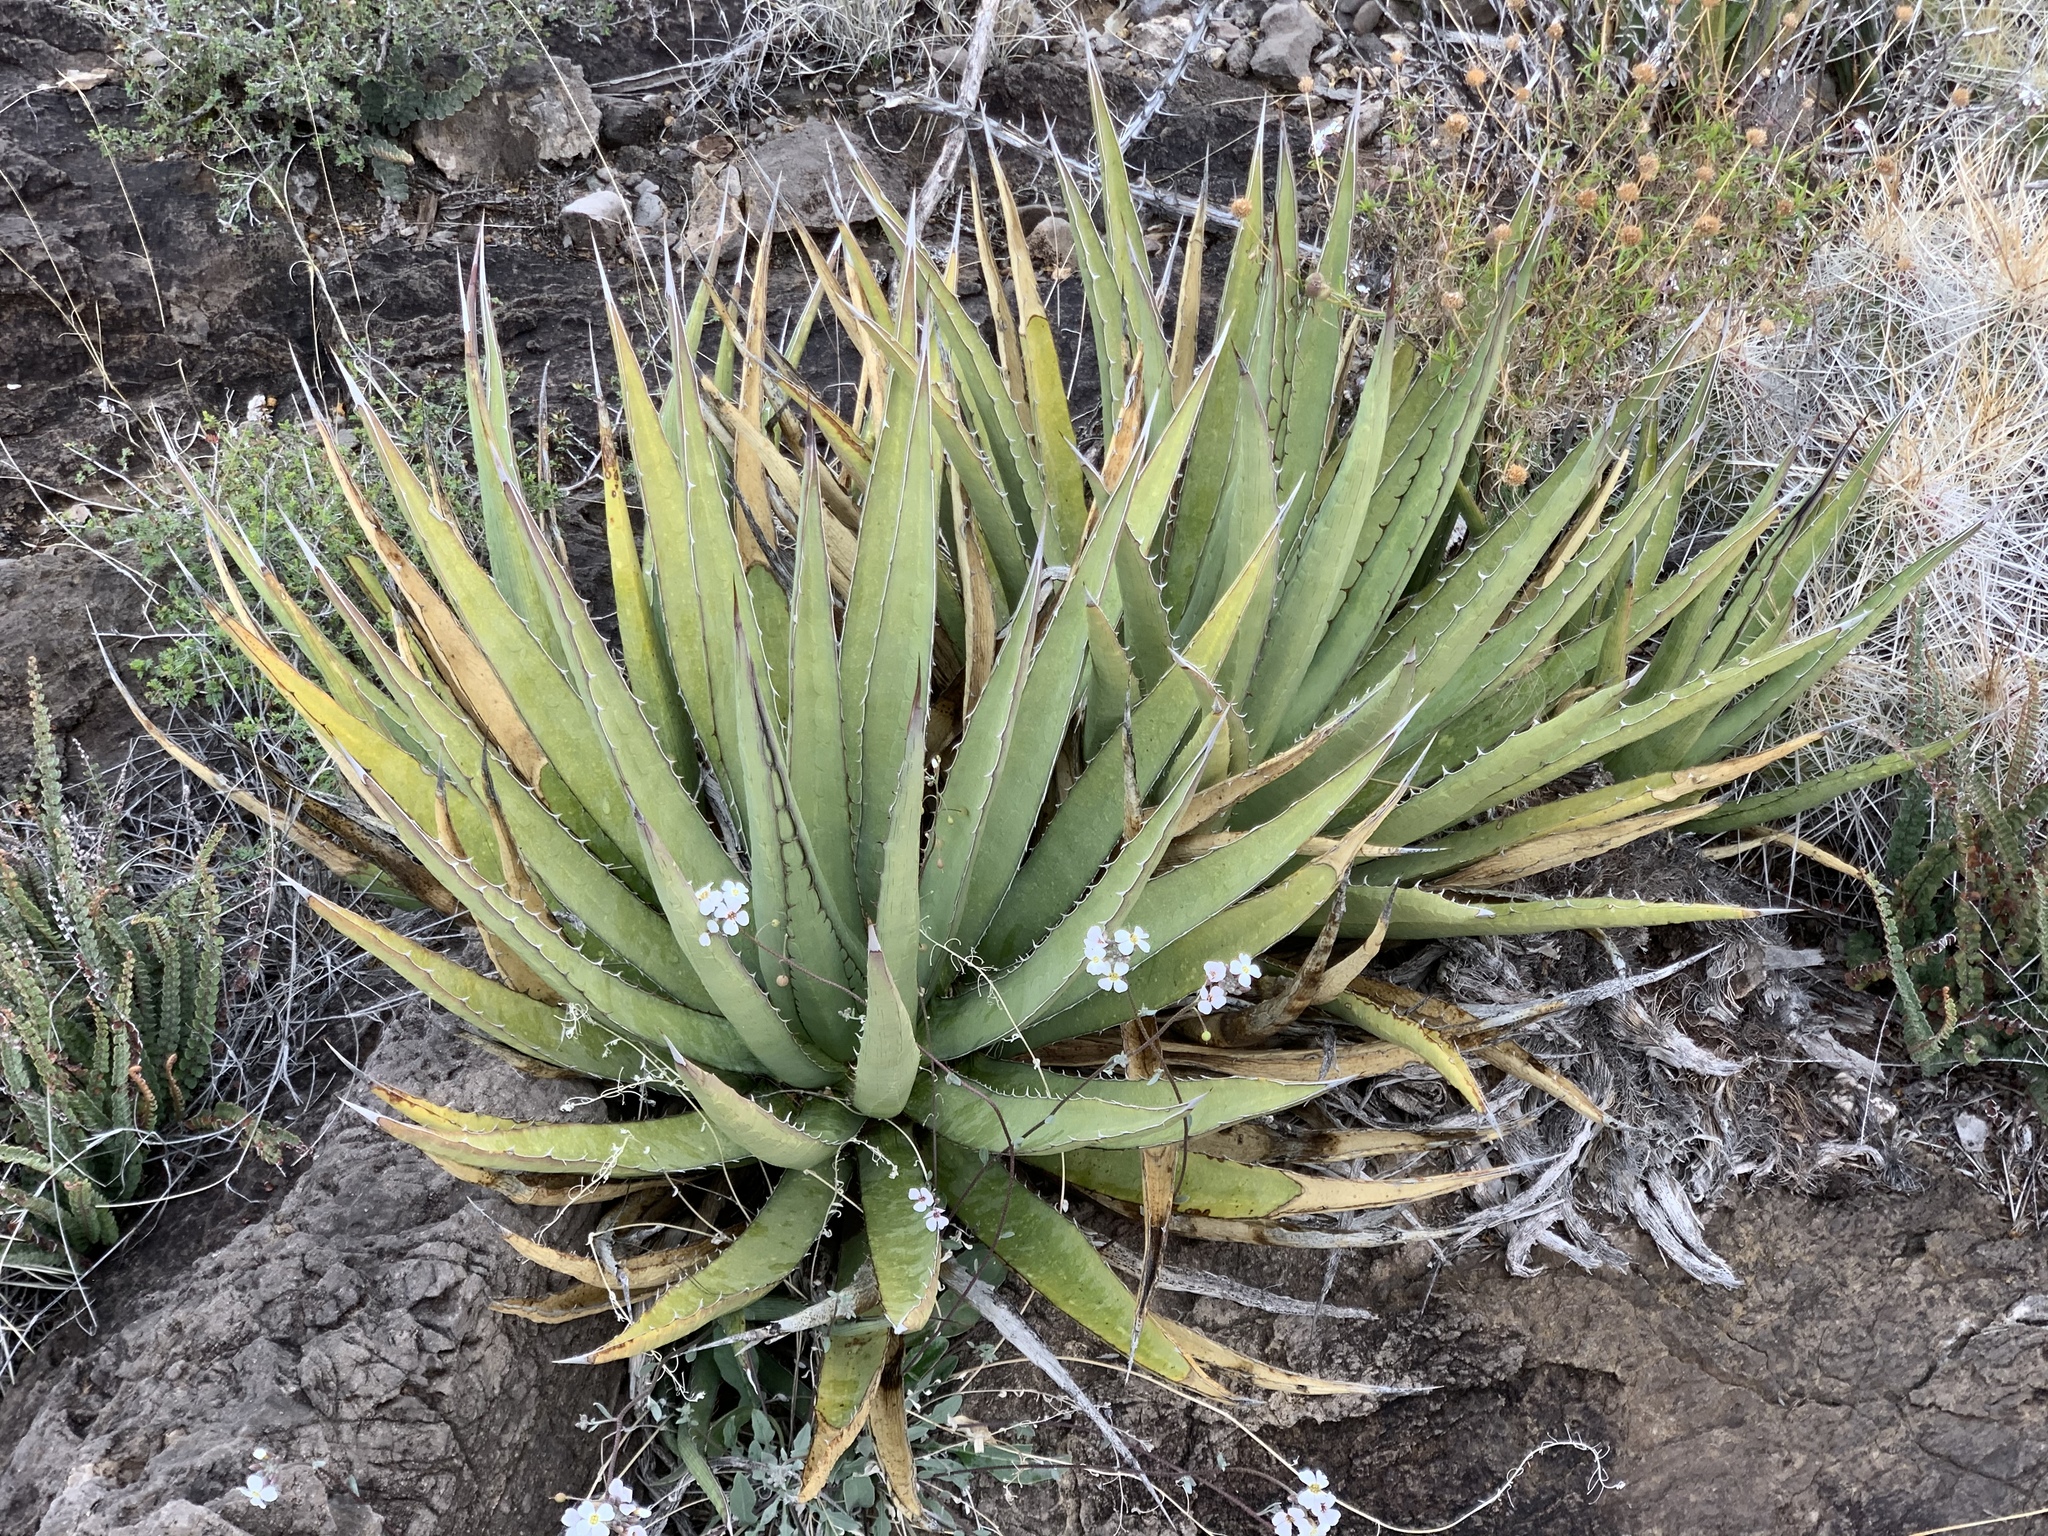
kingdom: Plantae
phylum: Tracheophyta
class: Liliopsida
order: Asparagales
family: Asparagaceae
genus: Agave
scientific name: Agave lechuguilla
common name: Lecheguilla agave
